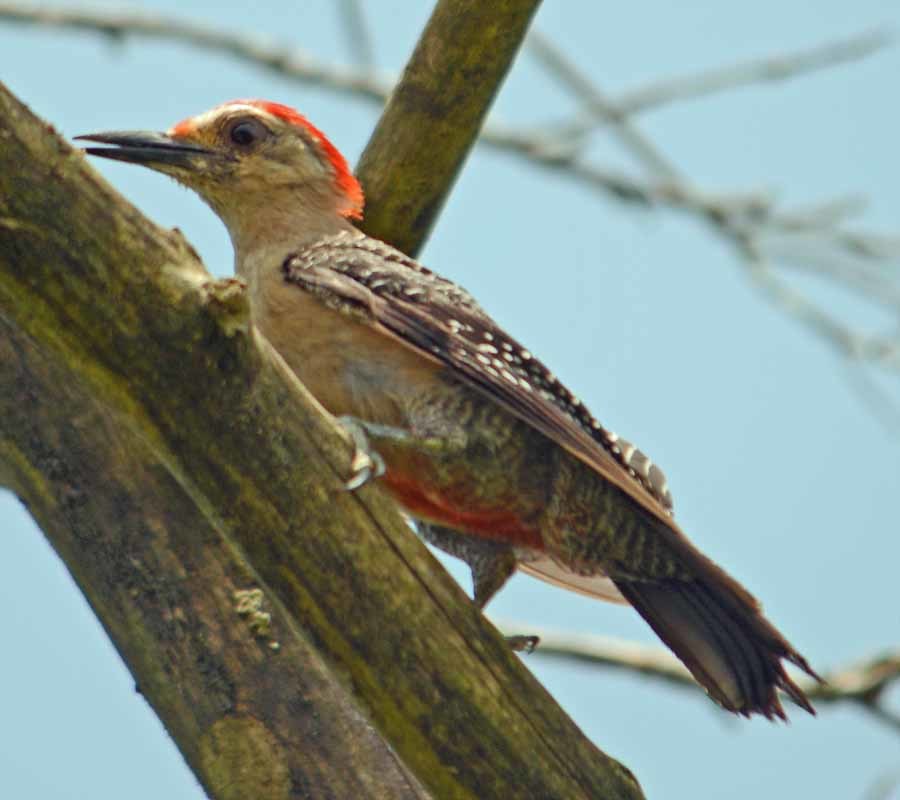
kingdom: Animalia
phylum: Chordata
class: Aves
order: Piciformes
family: Picidae
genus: Melanerpes
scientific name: Melanerpes aurifrons
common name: Golden-fronted woodpecker
